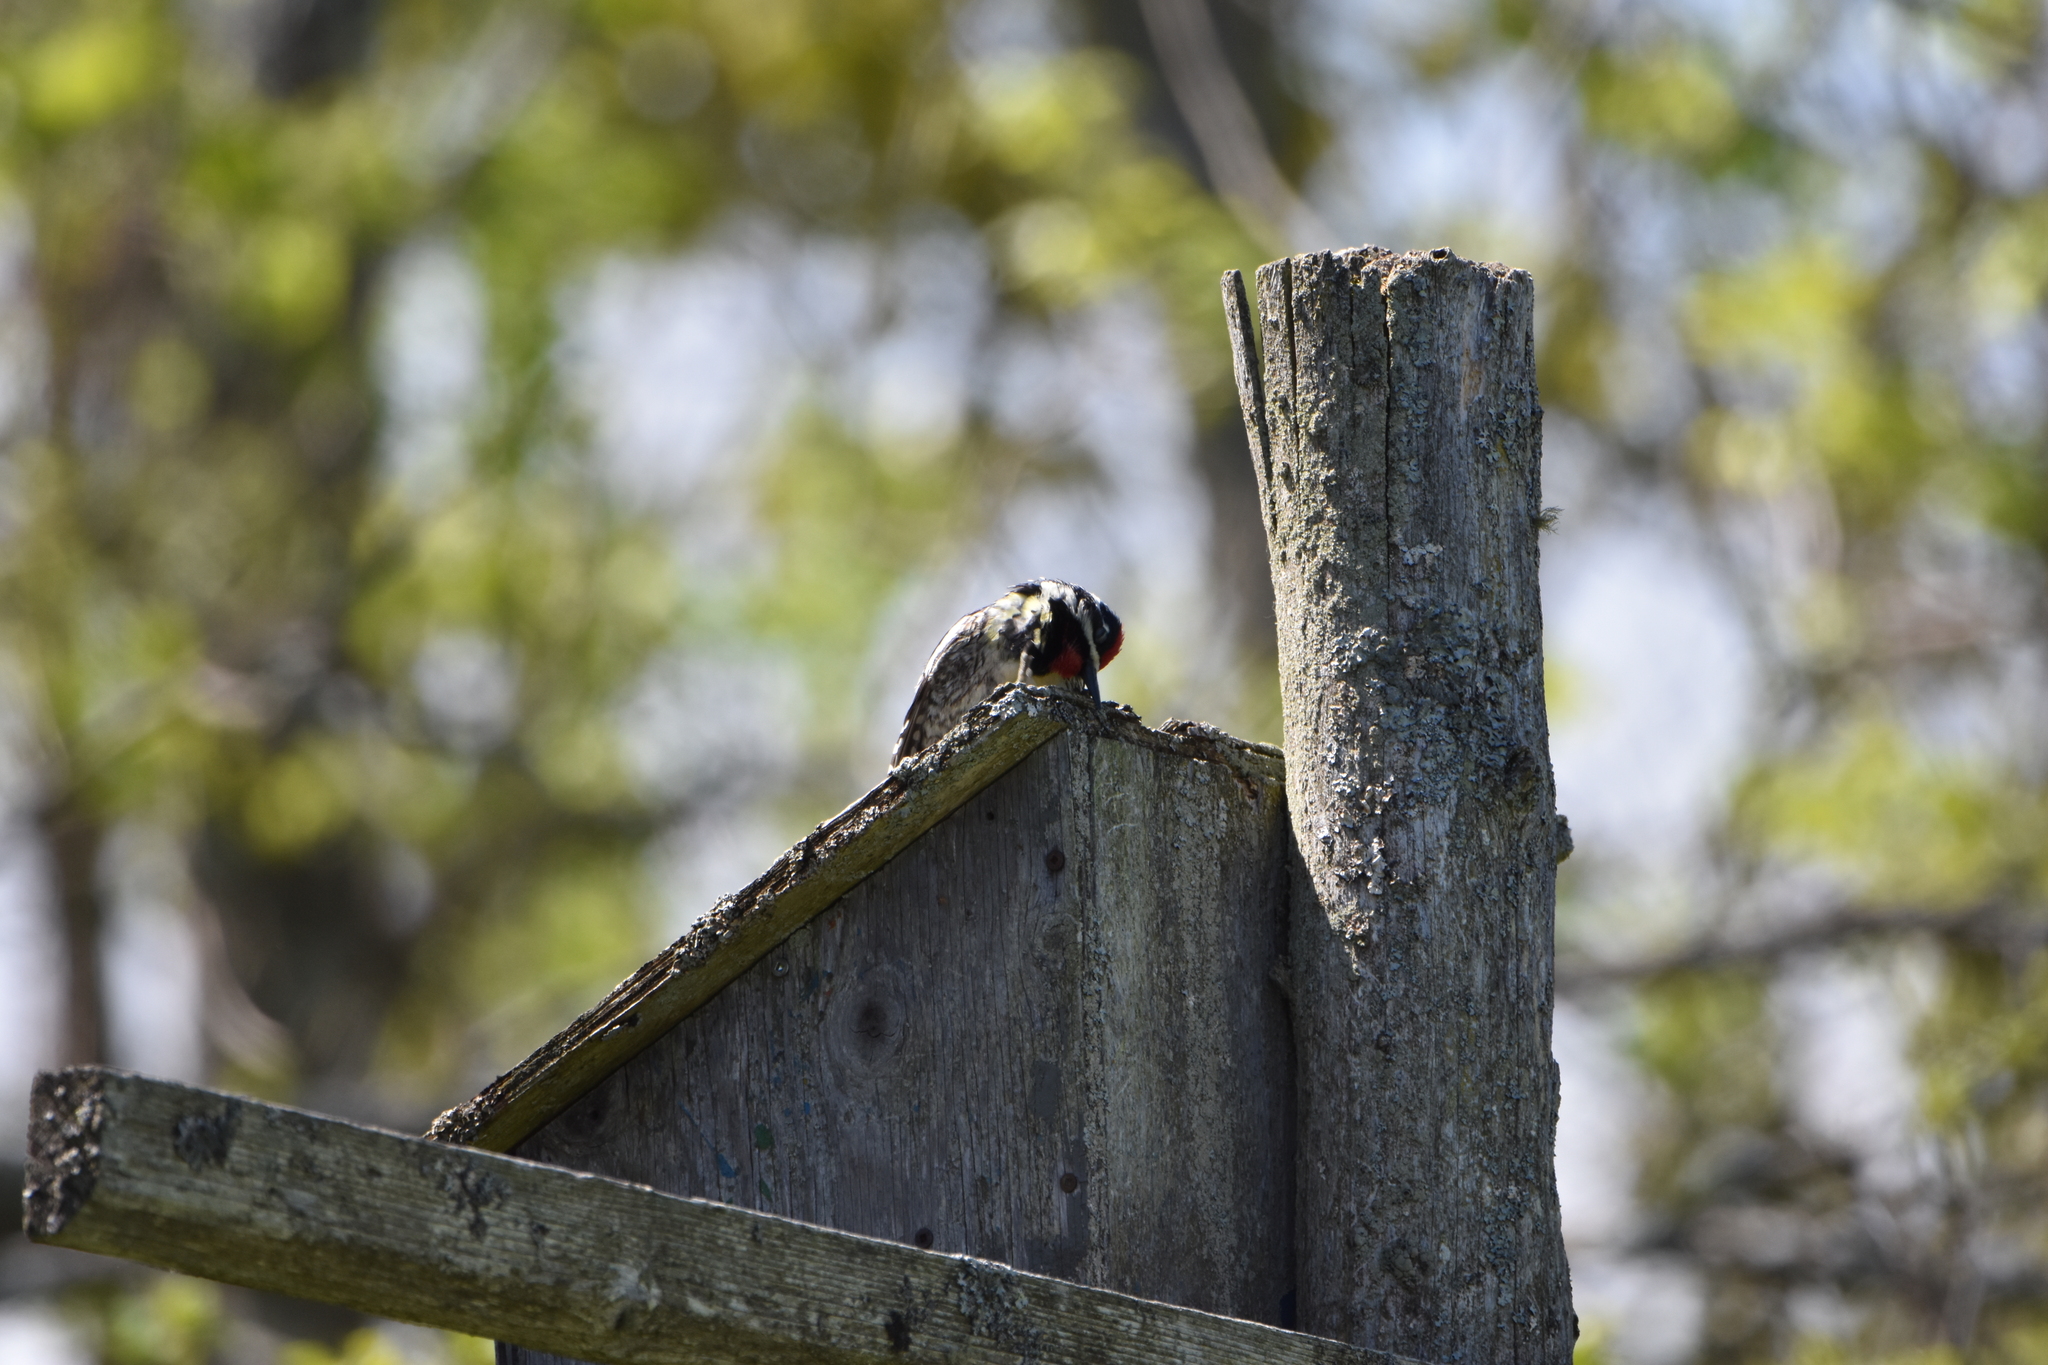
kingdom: Animalia
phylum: Chordata
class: Aves
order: Piciformes
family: Picidae
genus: Sphyrapicus
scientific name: Sphyrapicus varius
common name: Yellow-bellied sapsucker
